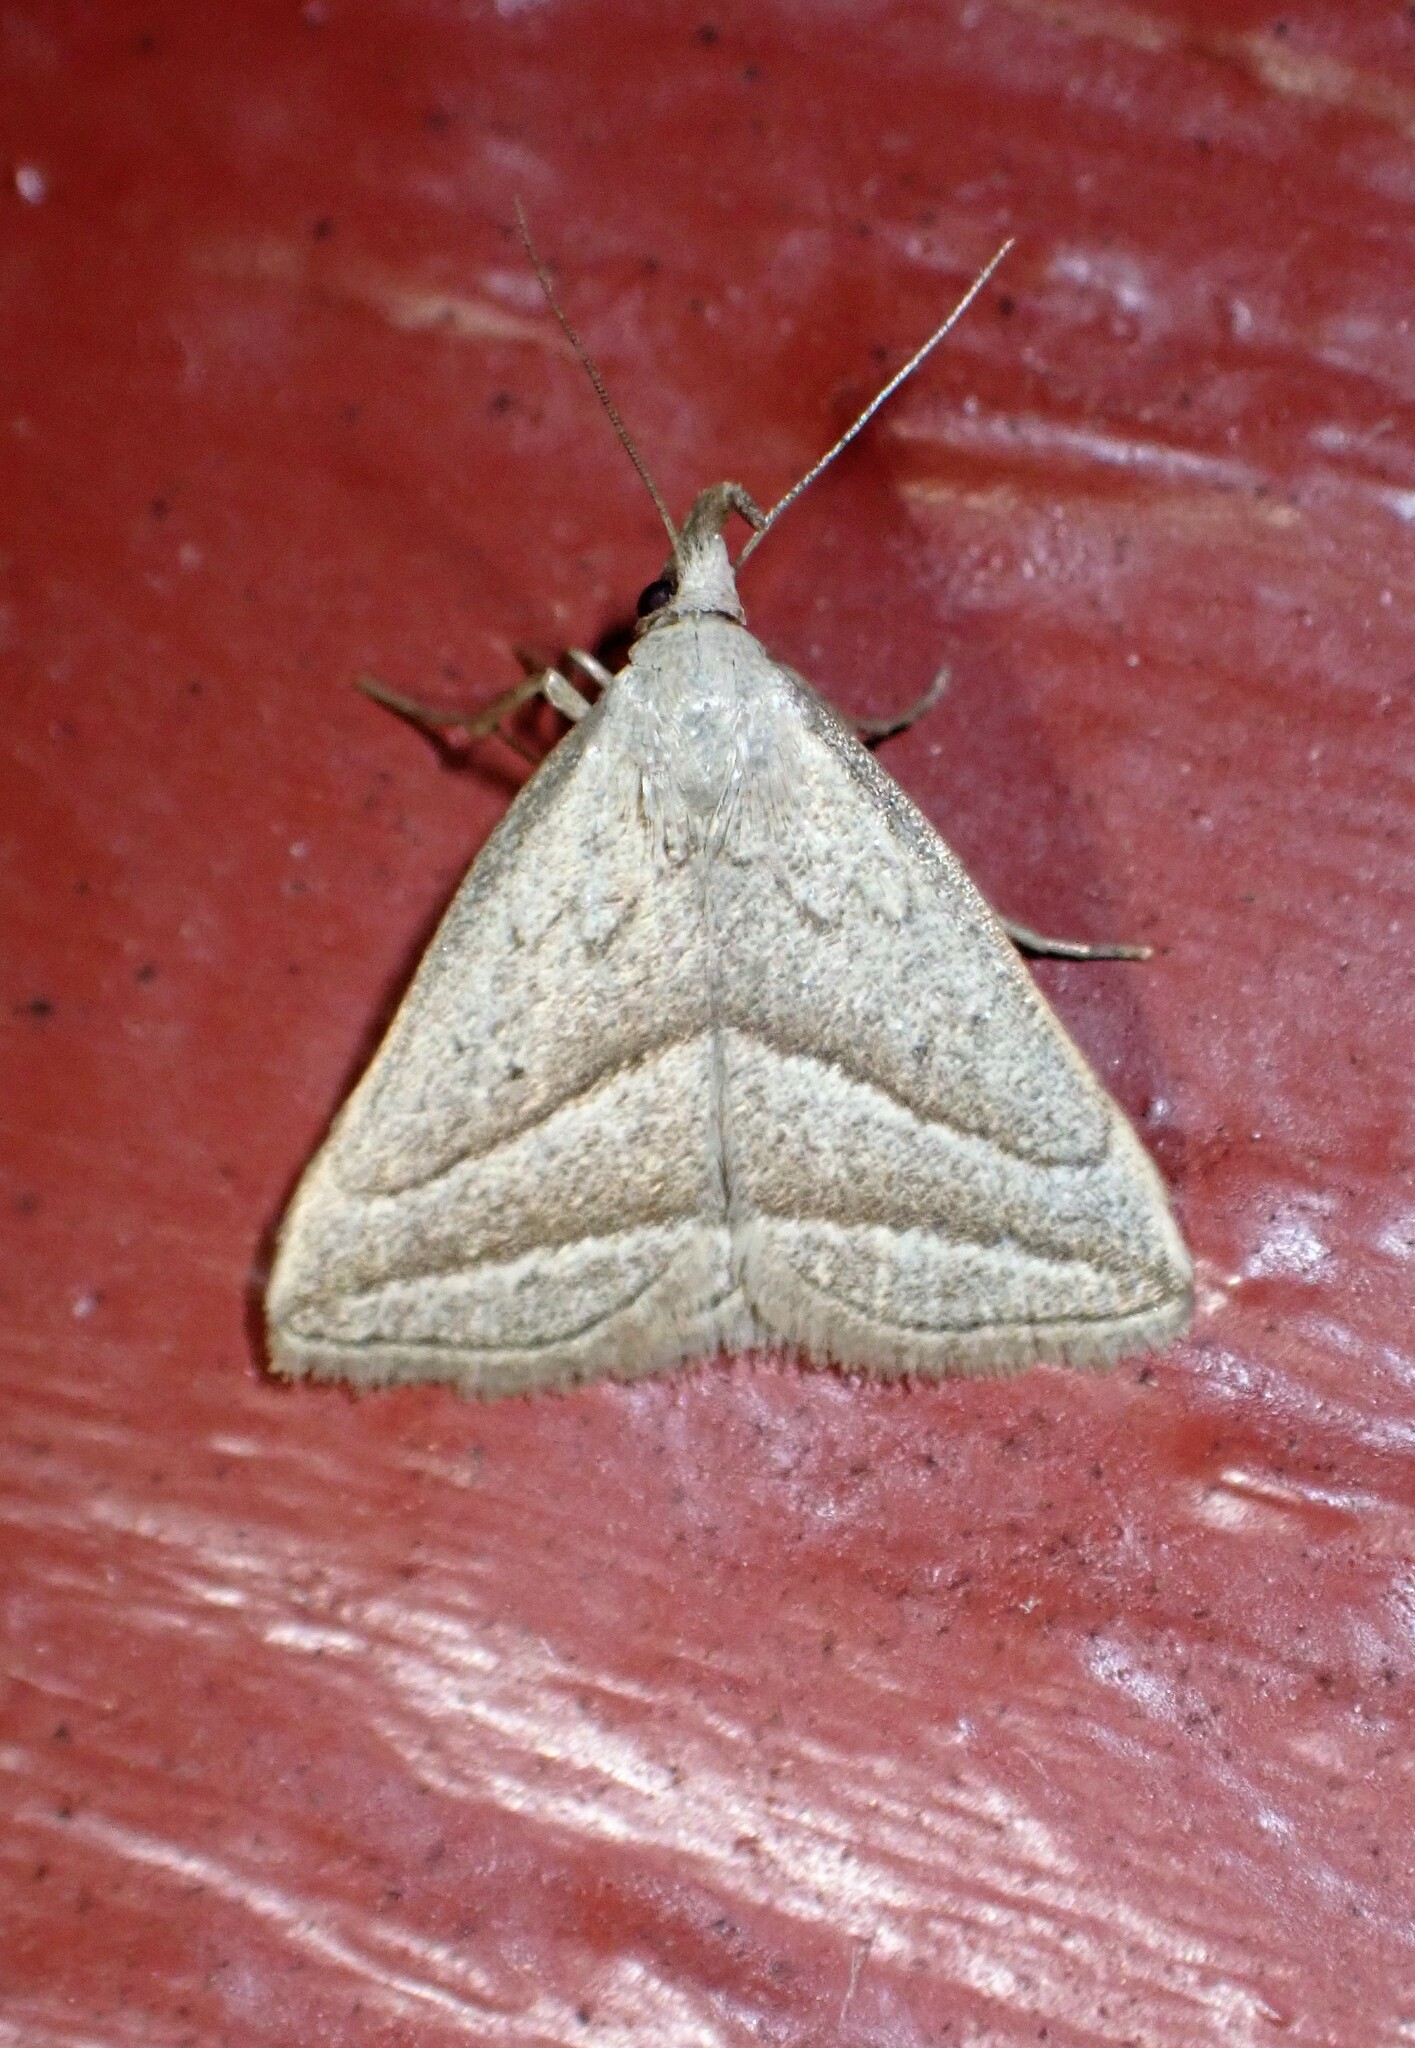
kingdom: Animalia
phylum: Arthropoda
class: Insecta
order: Lepidoptera
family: Erebidae
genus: Macrochilo
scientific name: Macrochilo absorptalis
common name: Slant-lined owlet
